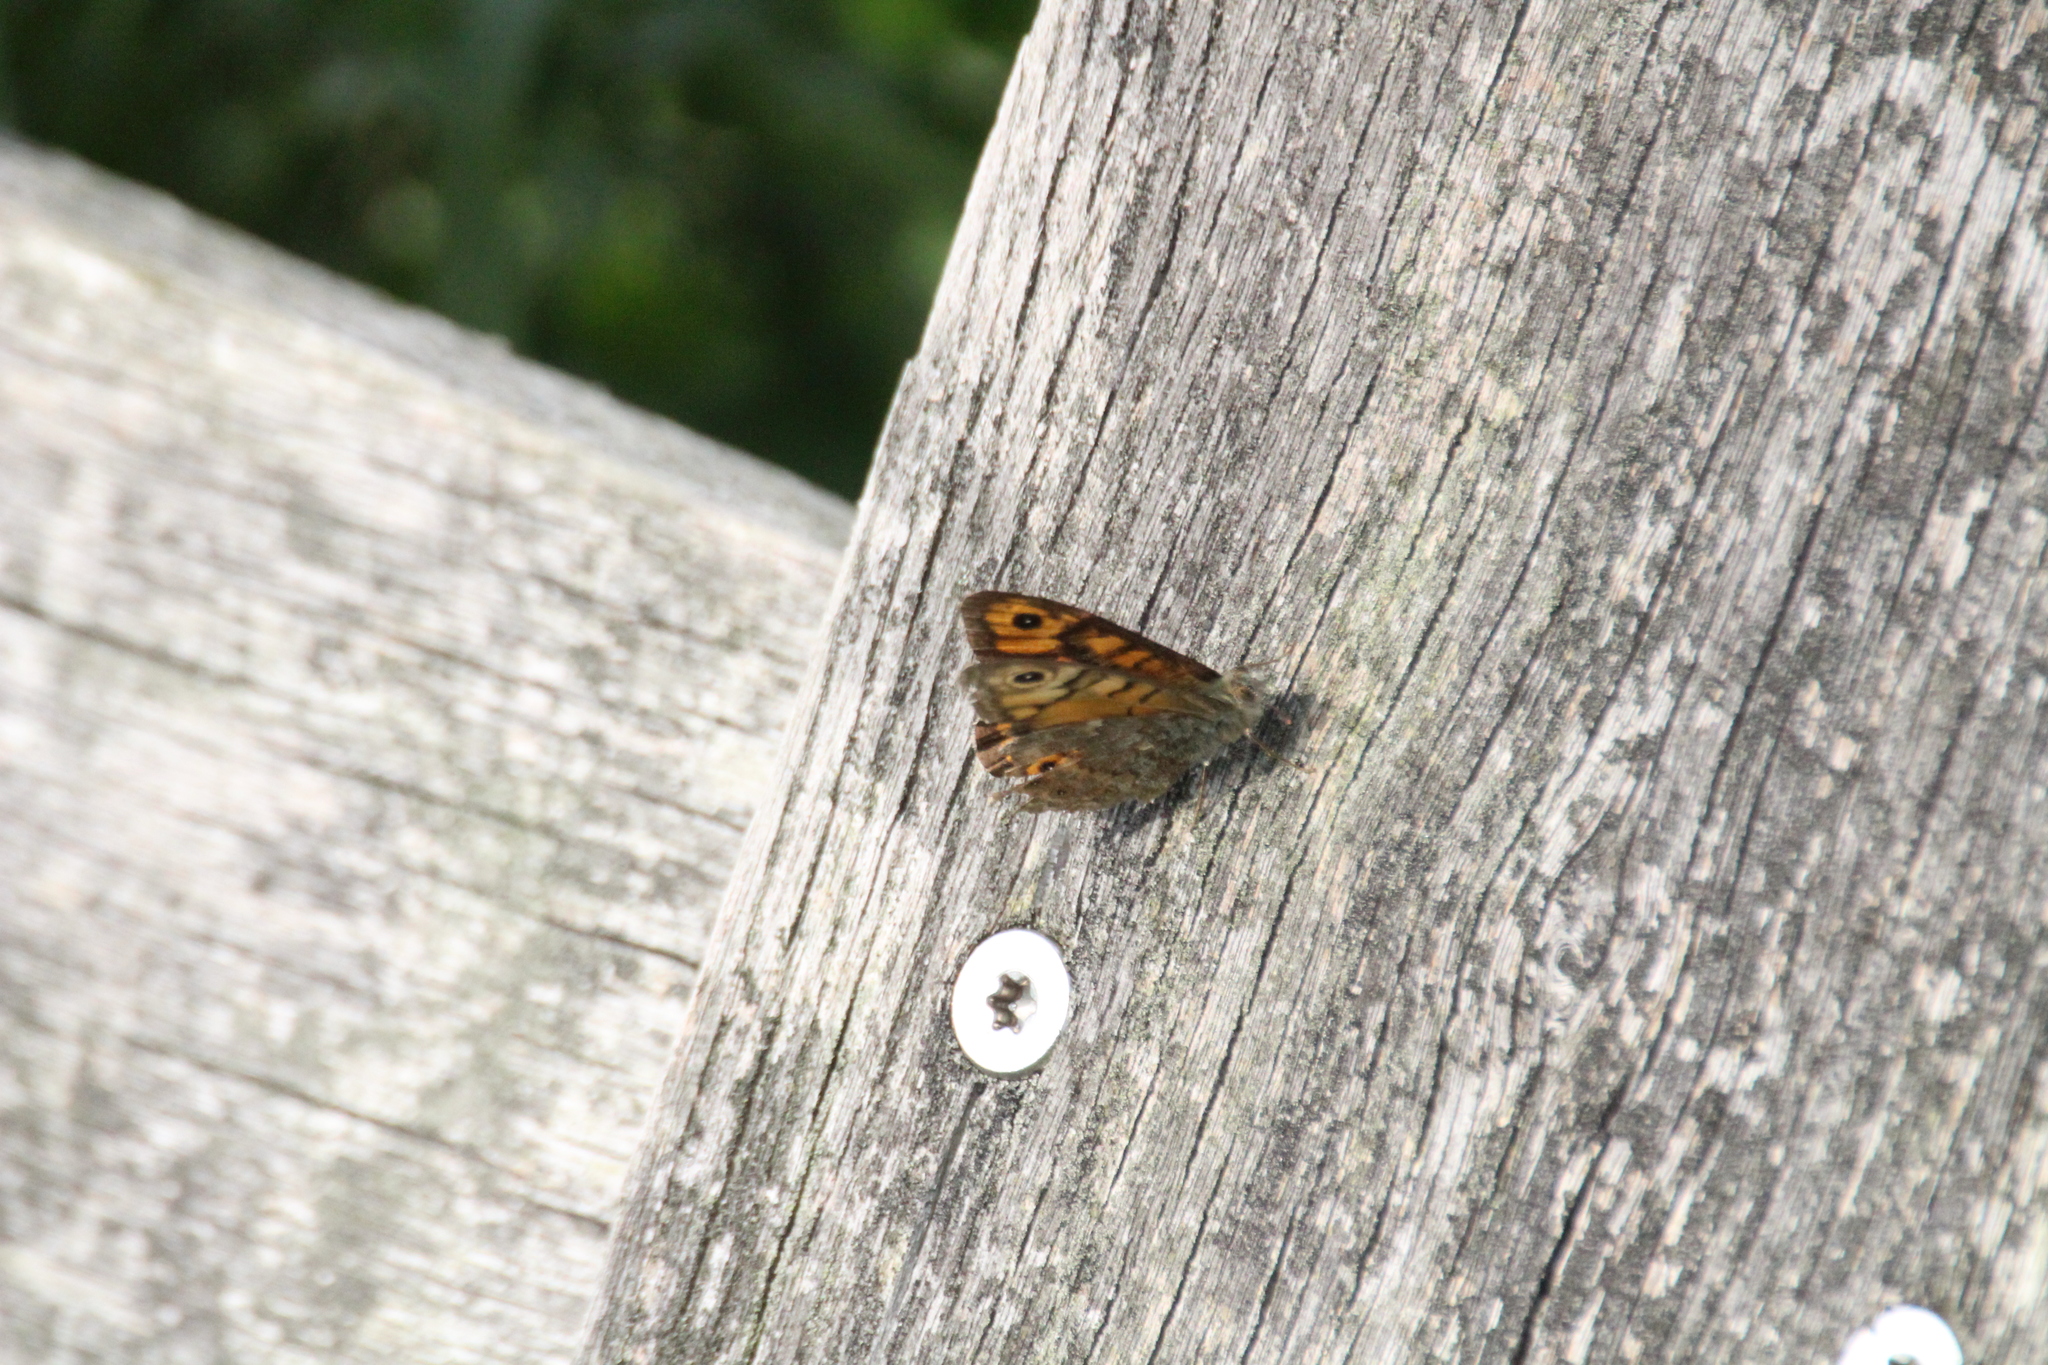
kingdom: Animalia
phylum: Arthropoda
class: Insecta
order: Lepidoptera
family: Nymphalidae
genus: Pararge
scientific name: Pararge Lasiommata megera
